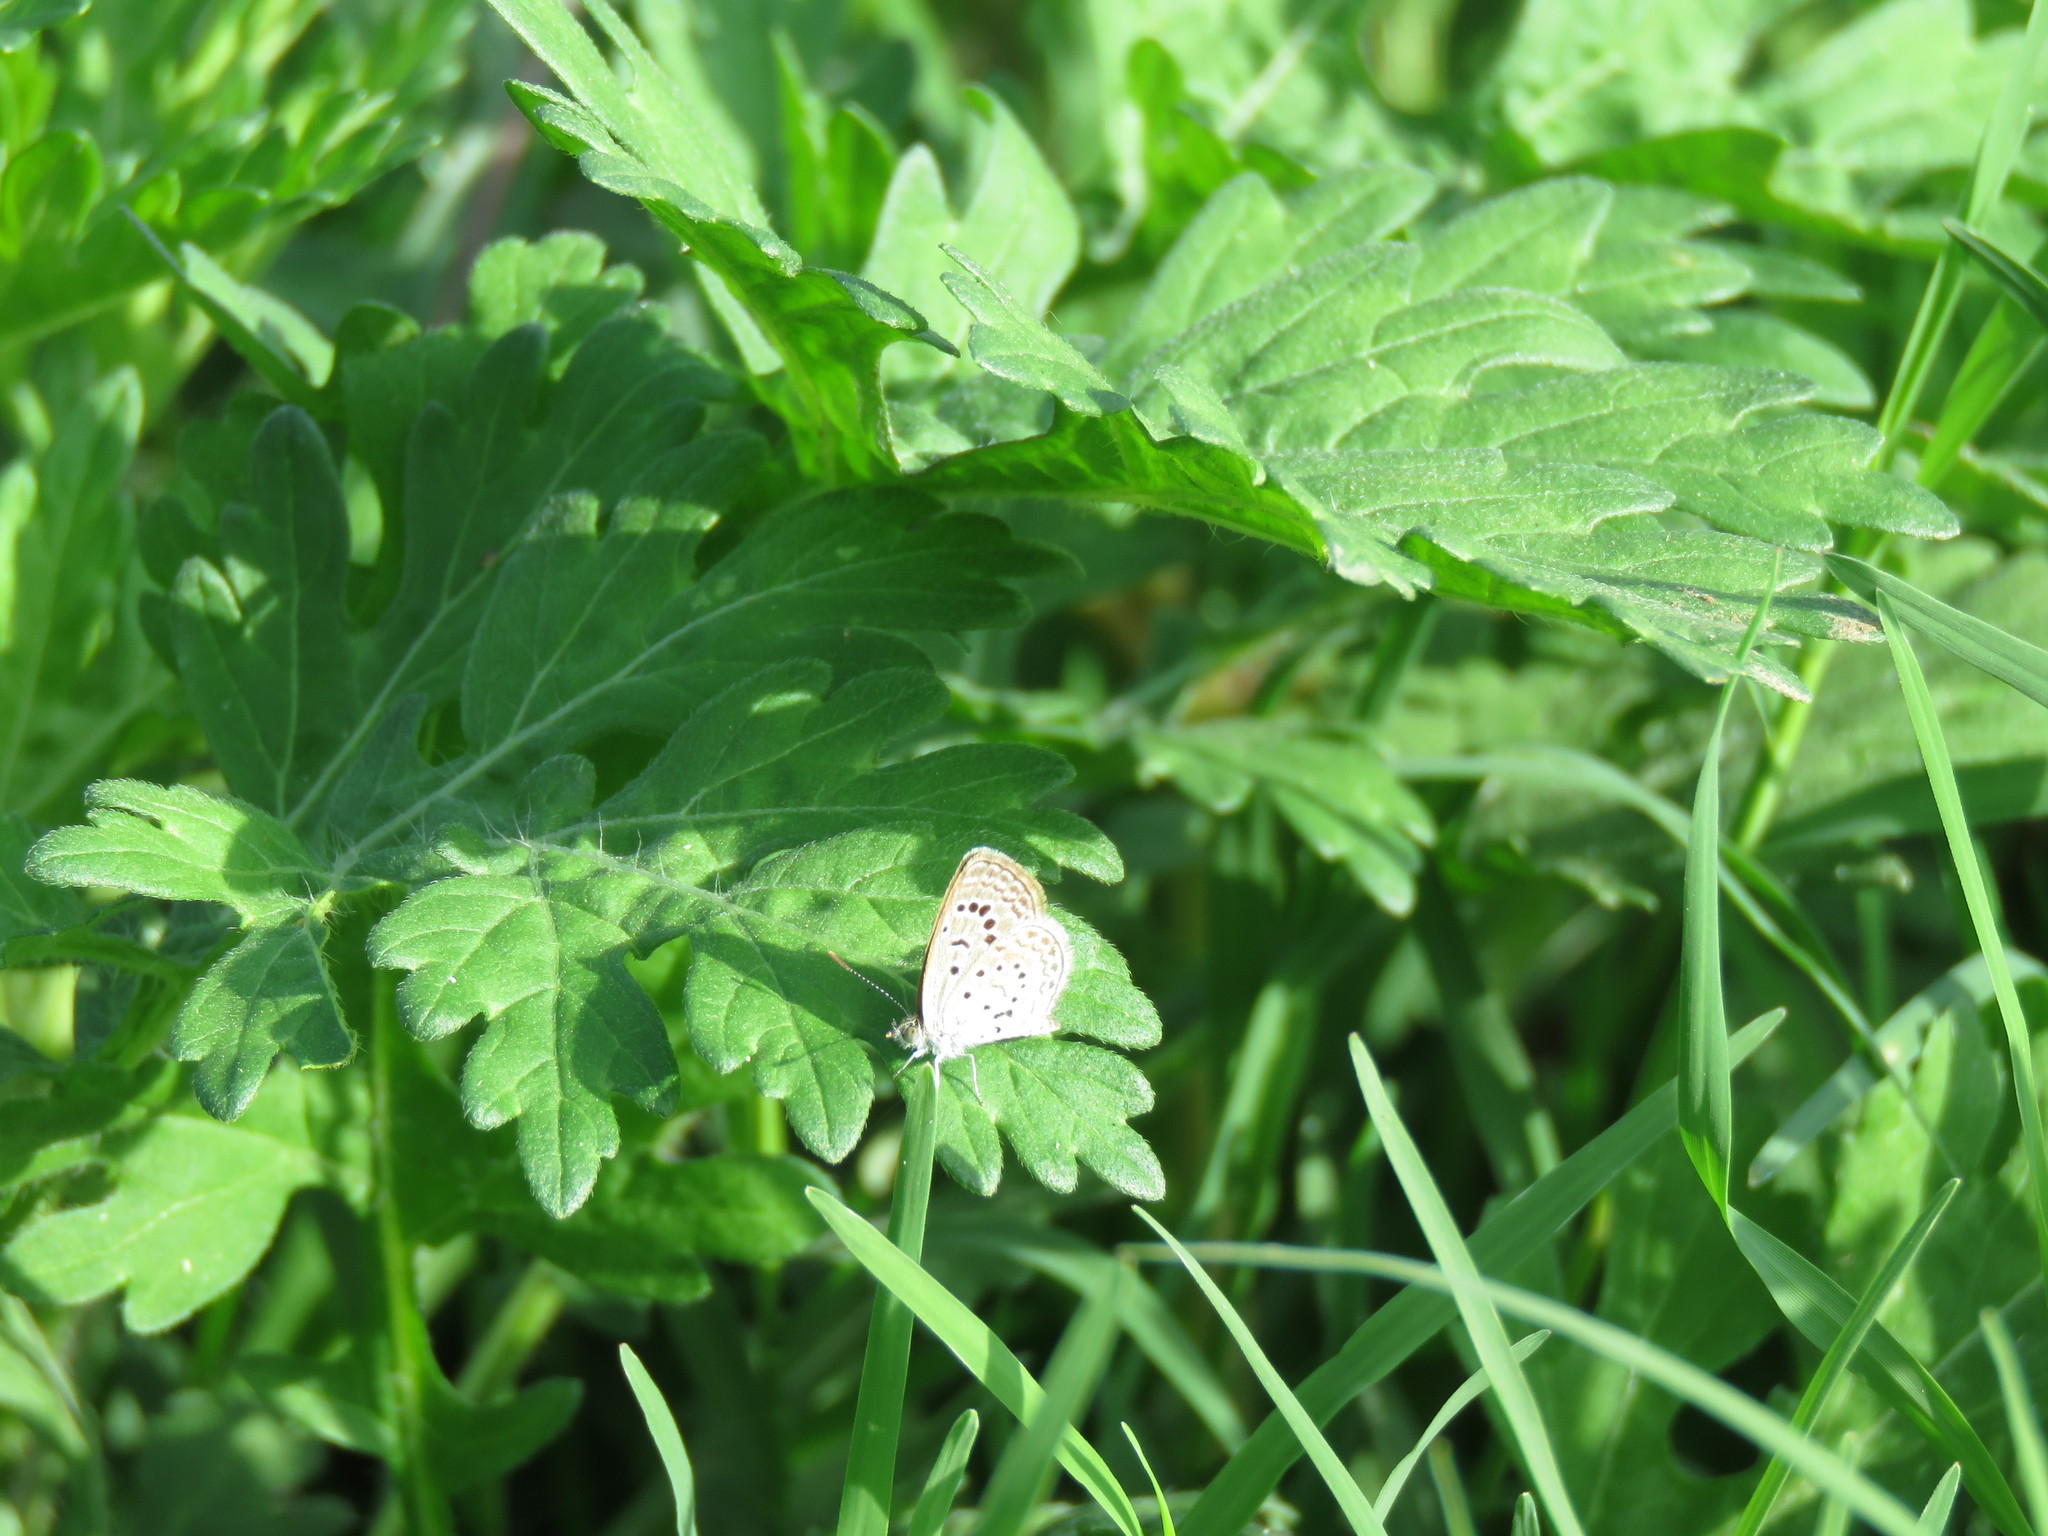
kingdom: Animalia
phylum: Arthropoda
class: Insecta
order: Lepidoptera
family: Lycaenidae
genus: Zizeeria
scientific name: Zizeeria karsandra
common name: Dark grass blue
